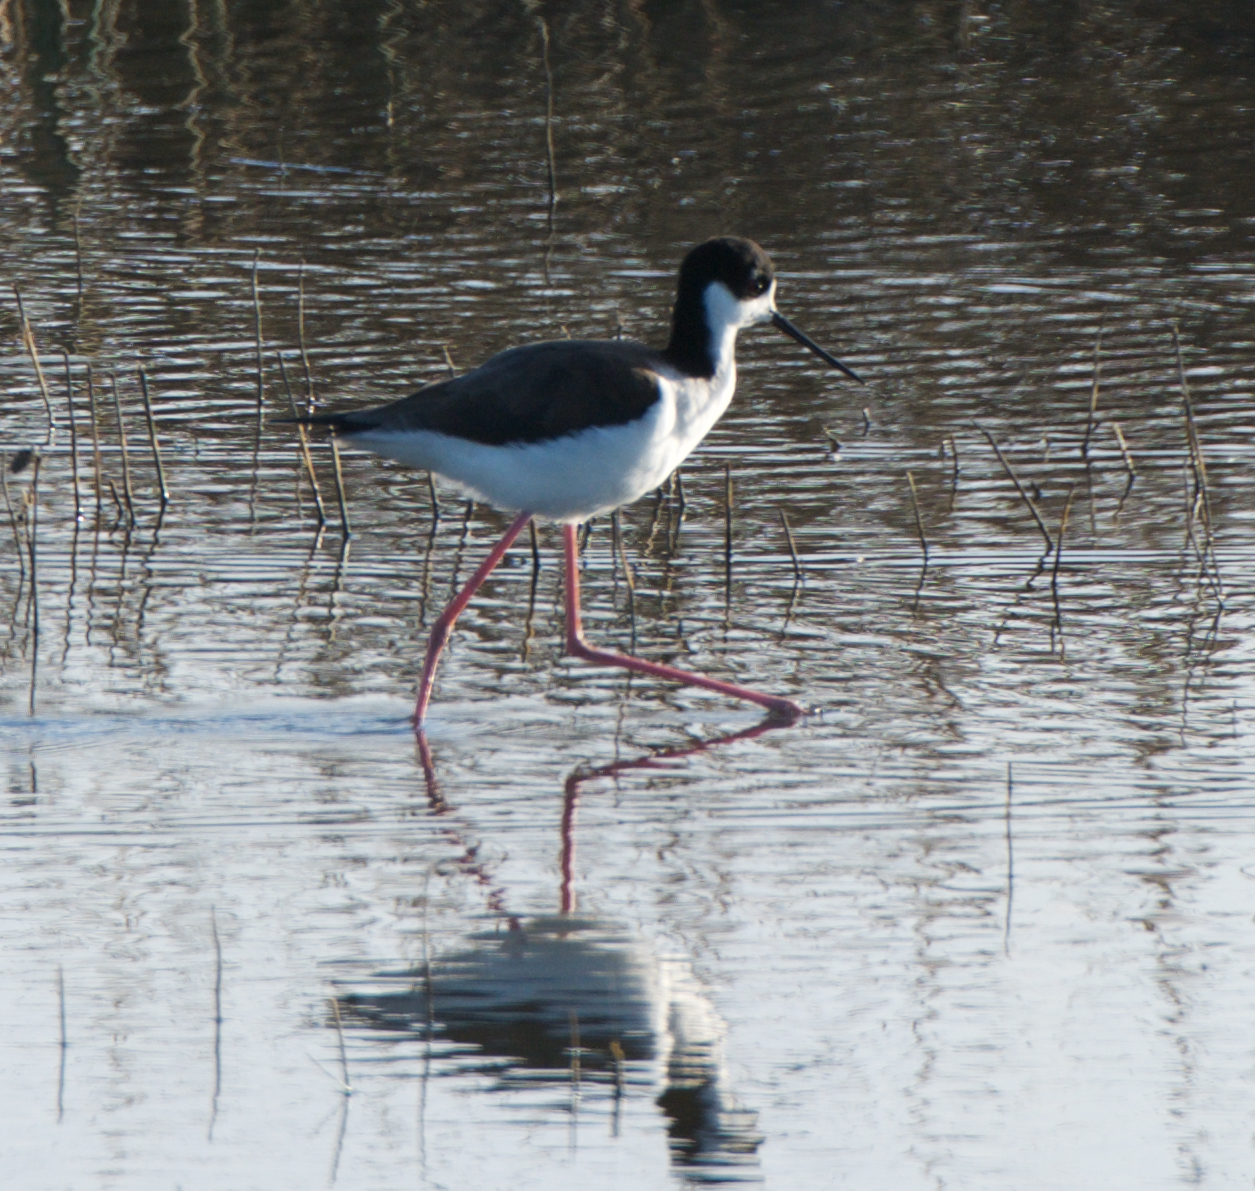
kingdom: Animalia
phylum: Chordata
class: Aves
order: Charadriiformes
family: Recurvirostridae
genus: Himantopus
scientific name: Himantopus mexicanus
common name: Black-necked stilt
